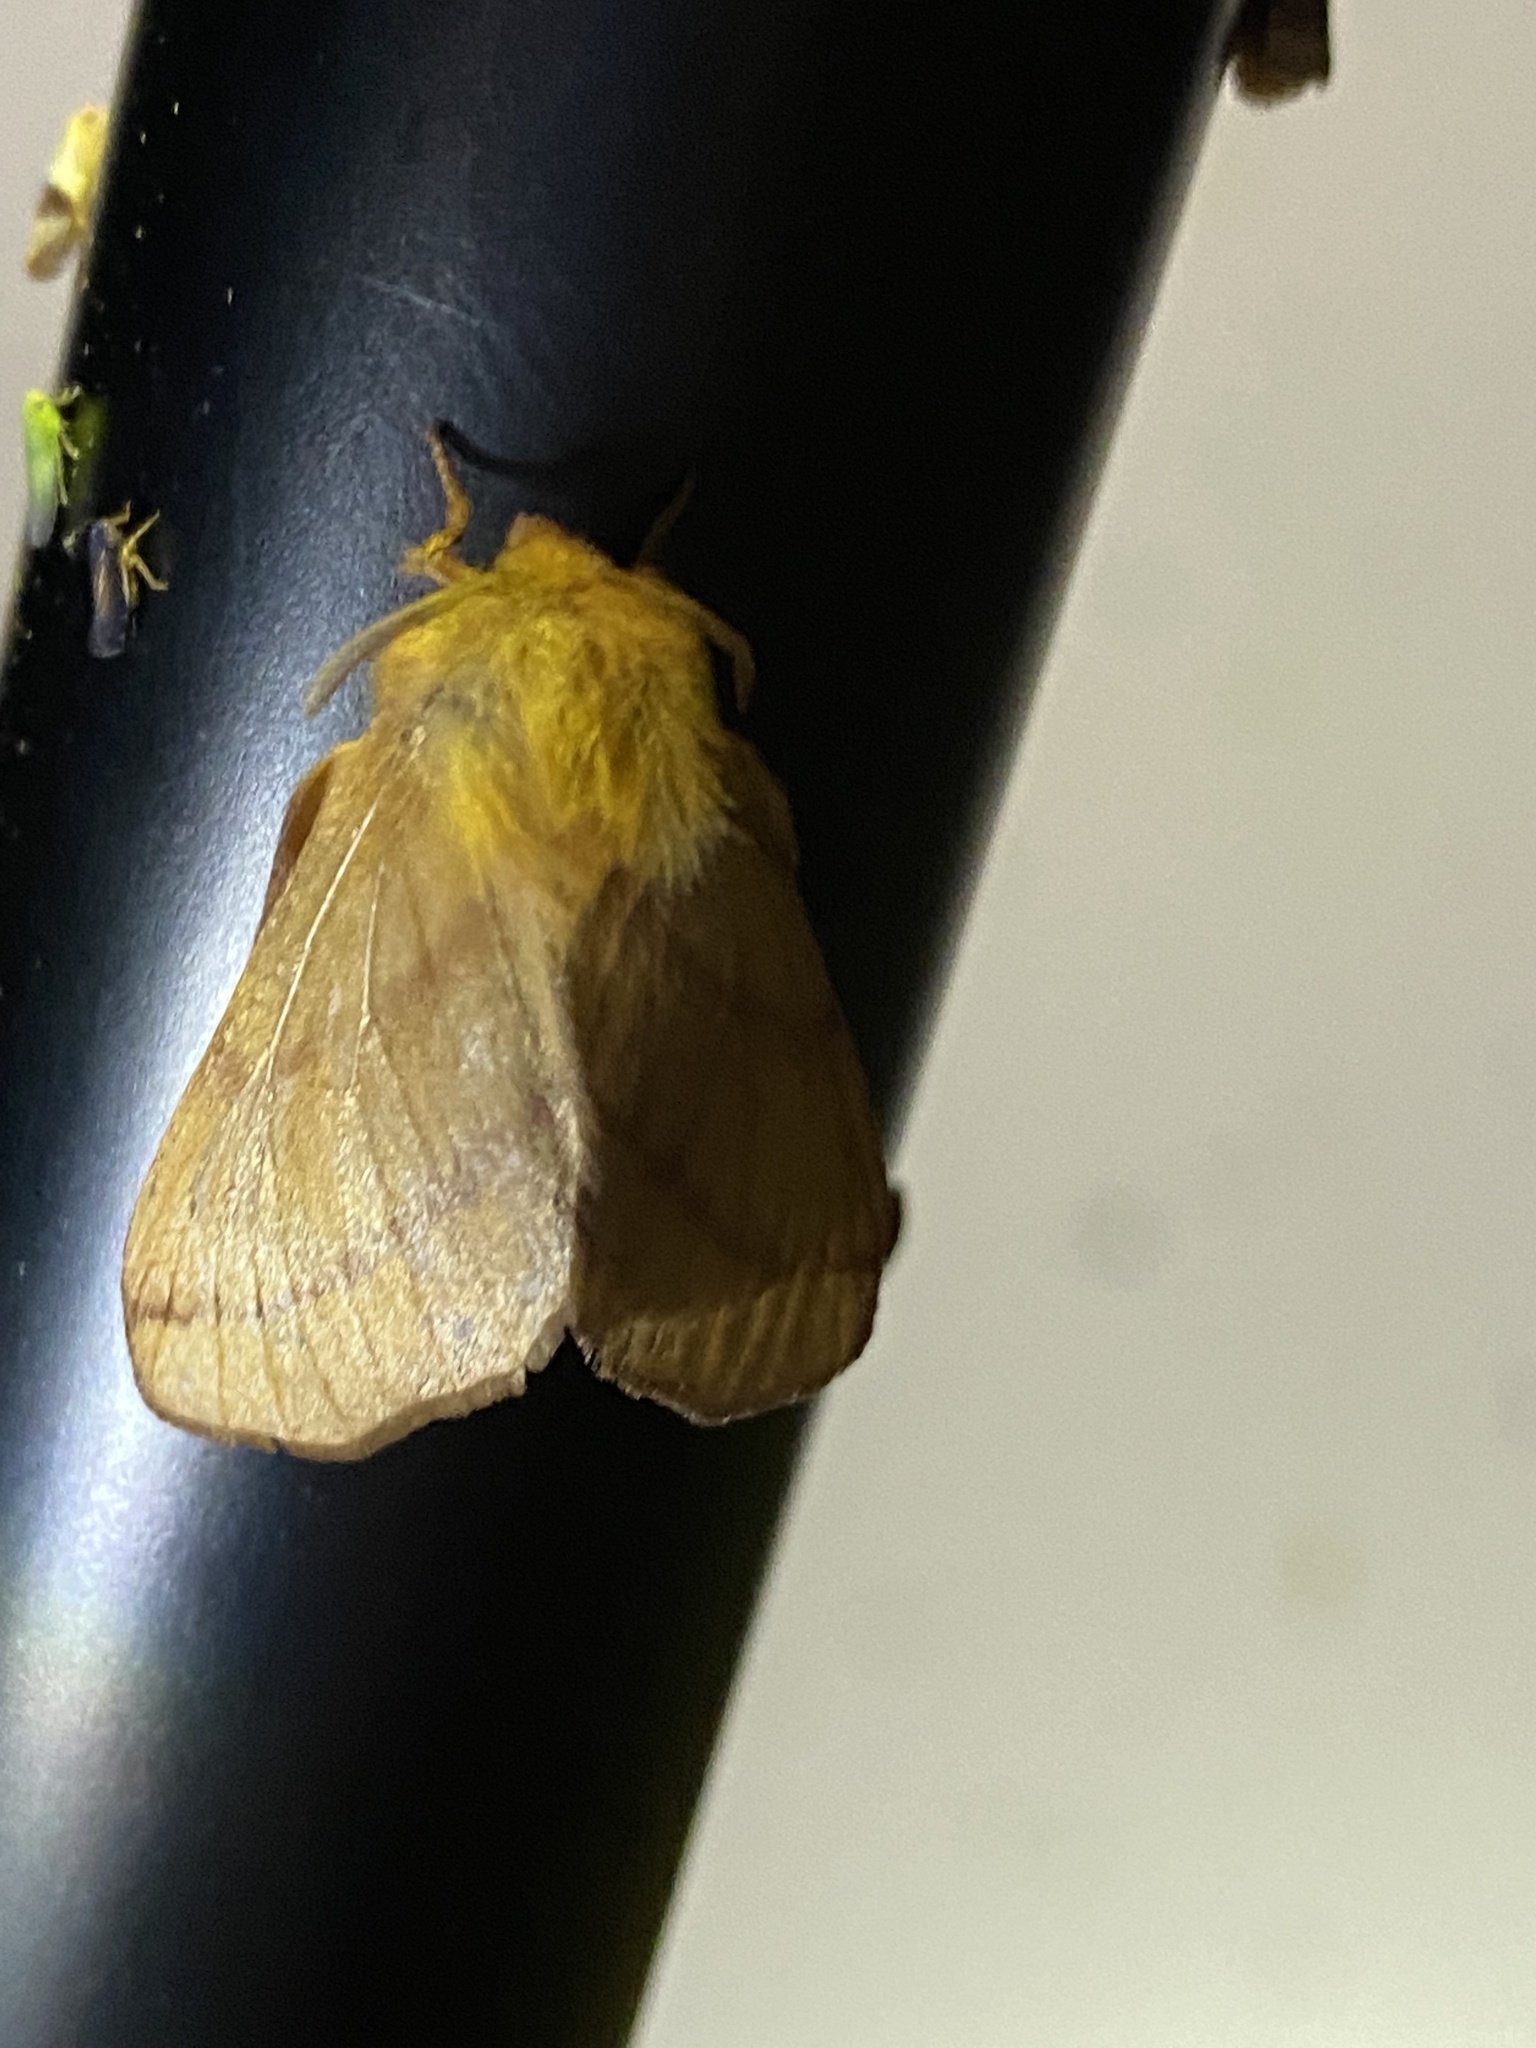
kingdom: Animalia
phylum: Arthropoda
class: Insecta
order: Lepidoptera
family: Lasiocampidae
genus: Malacosoma
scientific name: Malacosoma disstria
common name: Forest tent caterpillar
